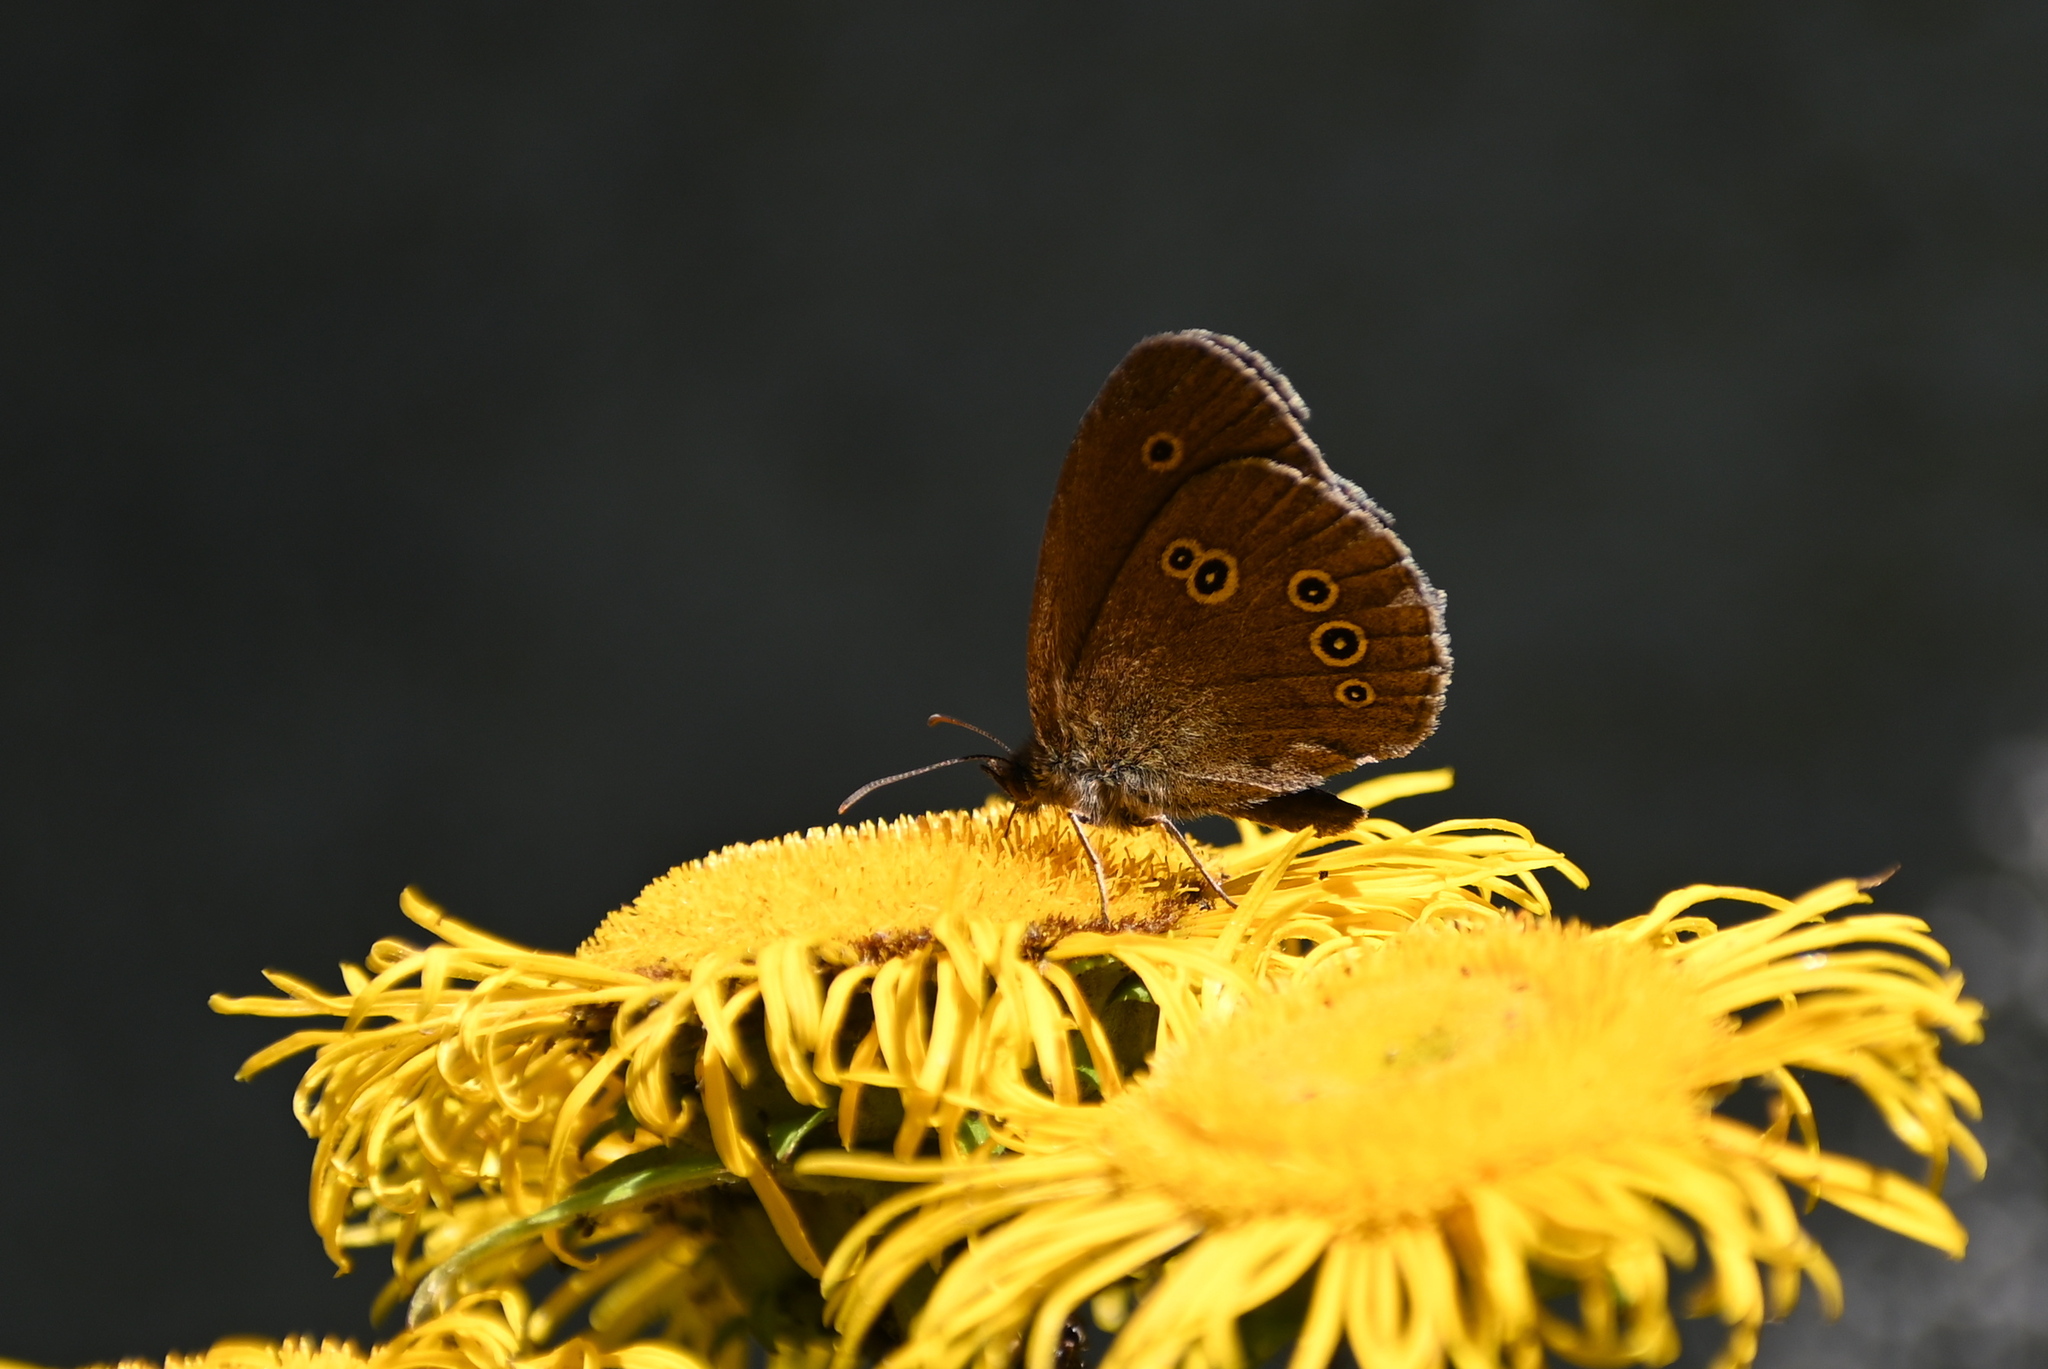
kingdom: Animalia
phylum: Arthropoda
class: Insecta
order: Lepidoptera
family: Nymphalidae
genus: Aphantopus
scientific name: Aphantopus hyperantus
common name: Ringlet
